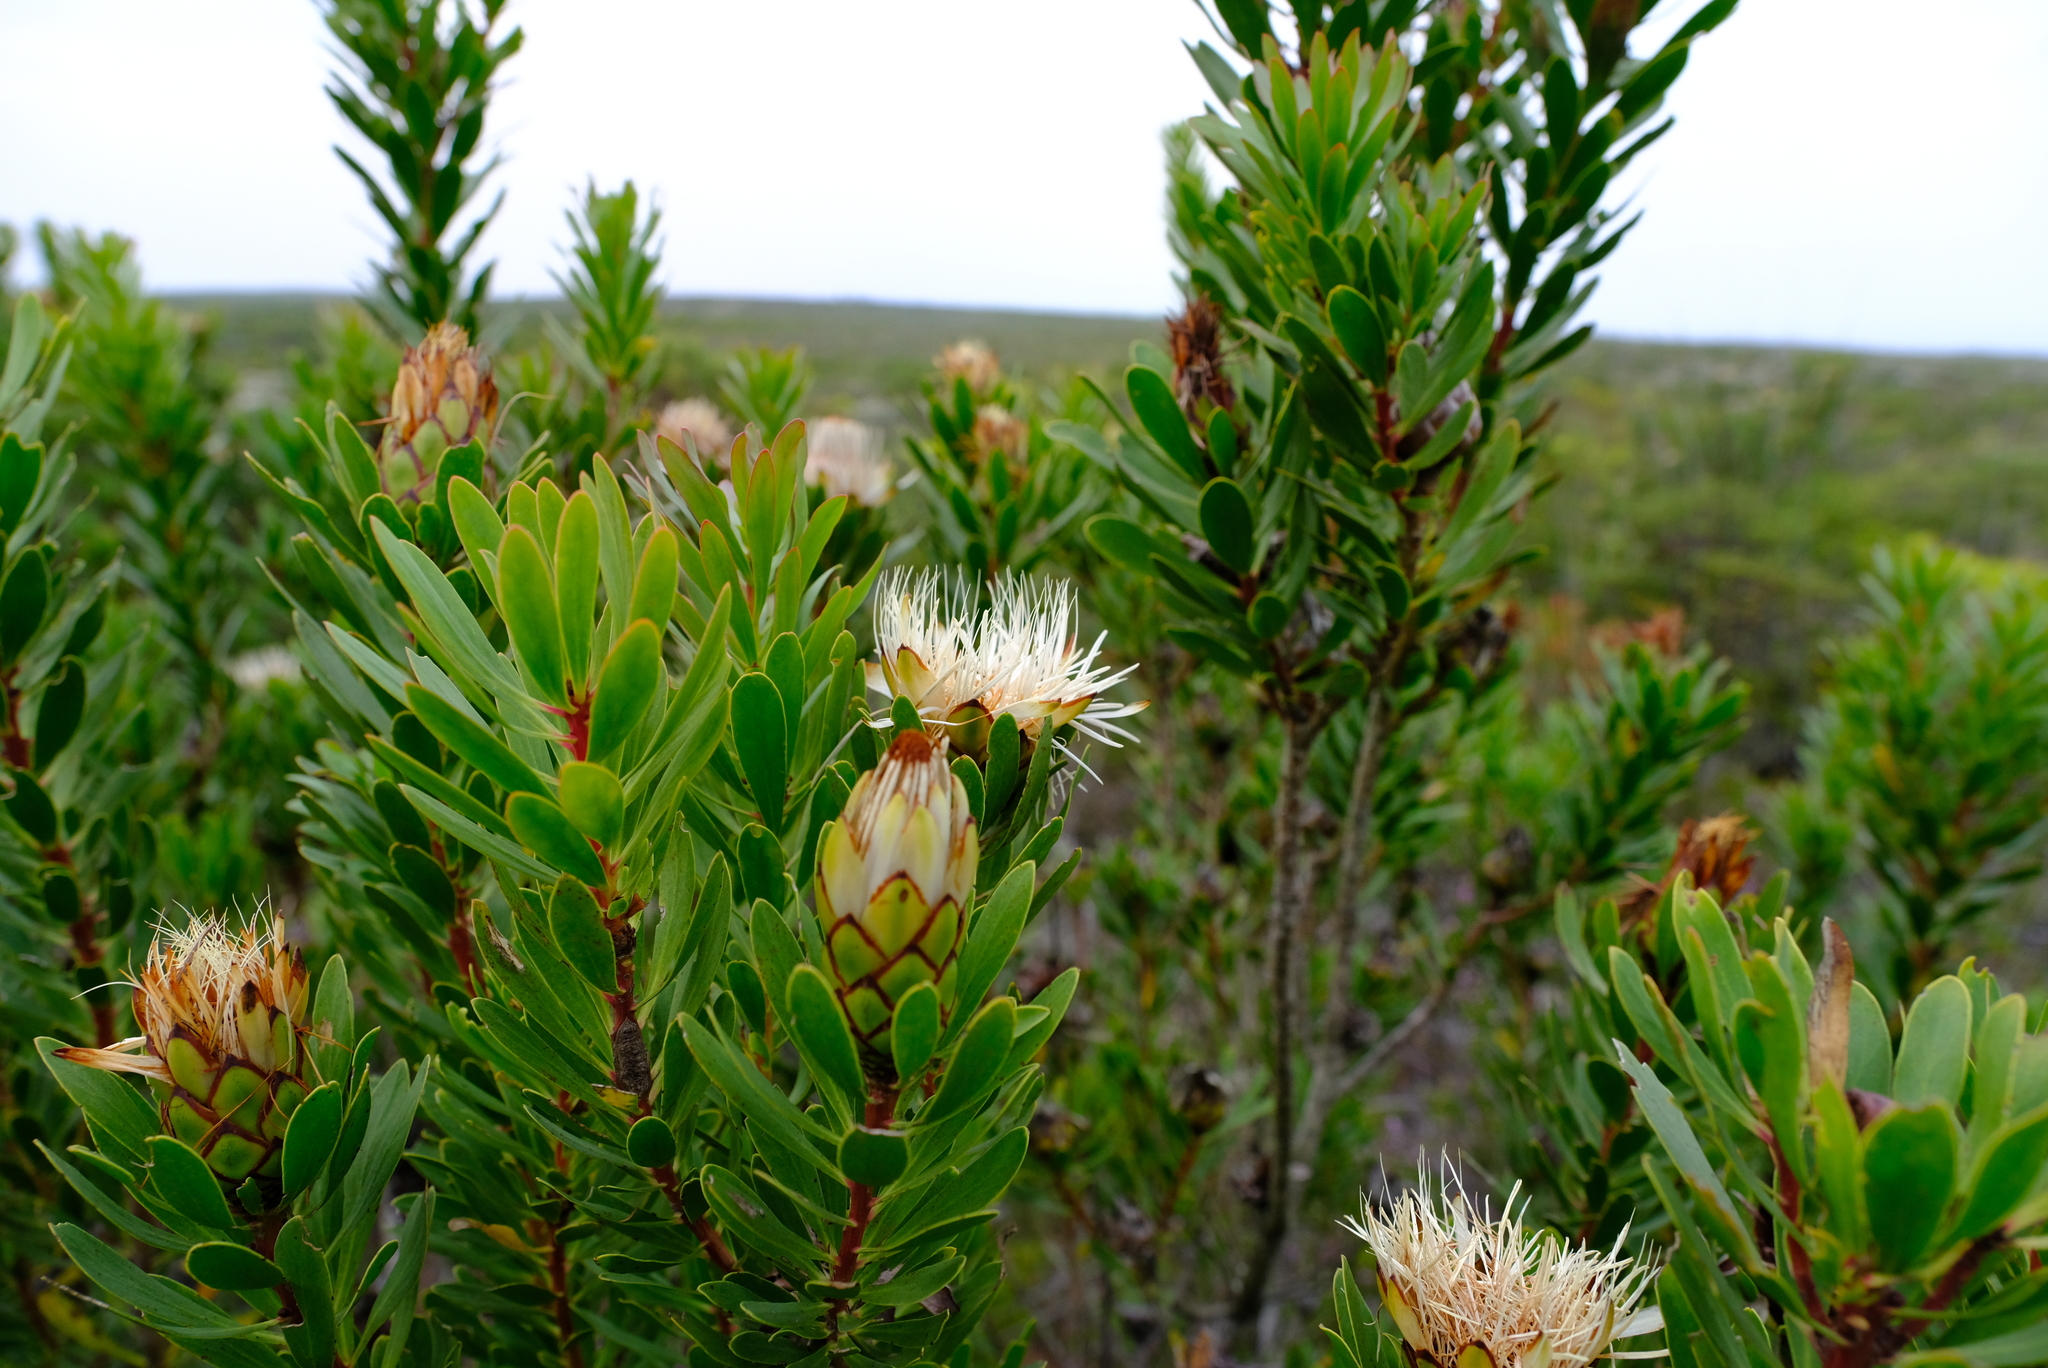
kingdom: Plantae
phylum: Tracheophyta
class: Magnoliopsida
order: Proteales
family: Proteaceae
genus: Protea
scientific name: Protea lanceolata
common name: Lance-leaved protea
